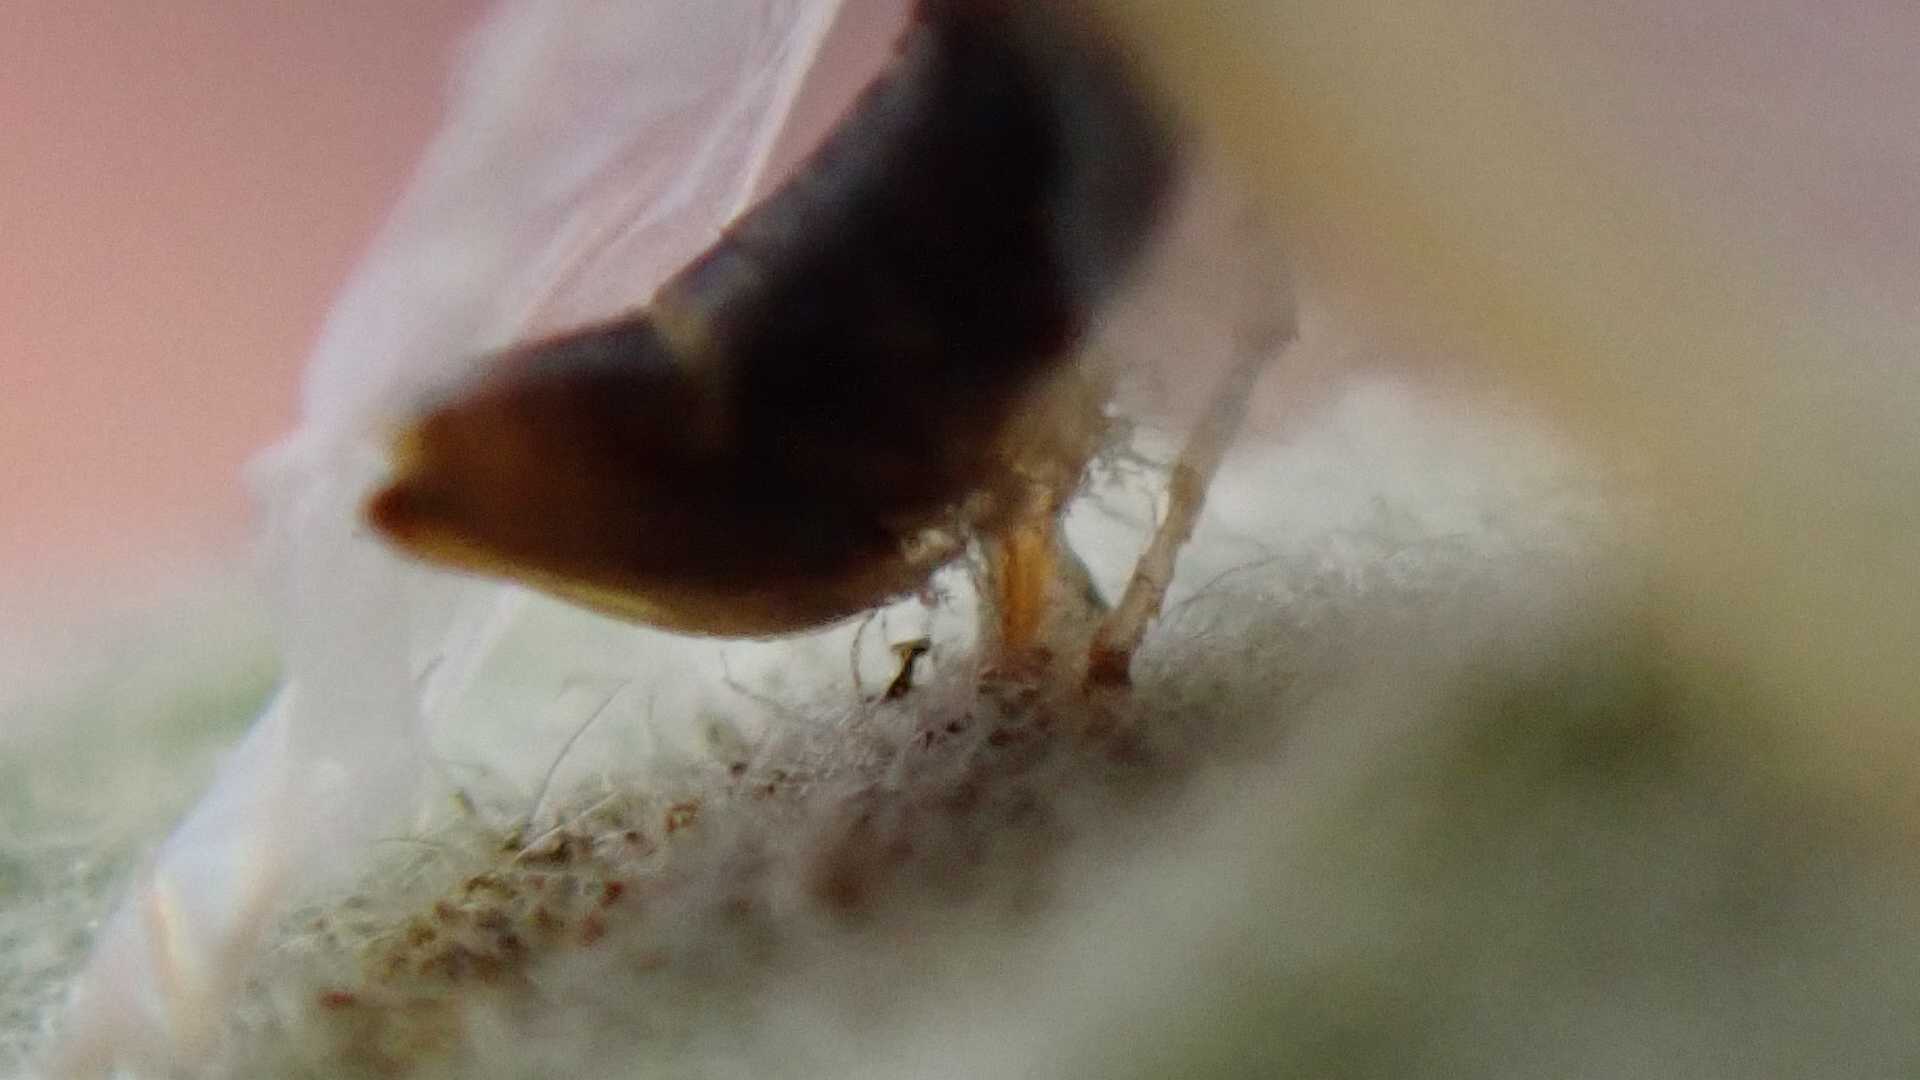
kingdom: Animalia
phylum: Arthropoda
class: Insecta
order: Hemiptera
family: Cicadellidae
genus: Lindbergina
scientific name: Lindbergina aurovittata
